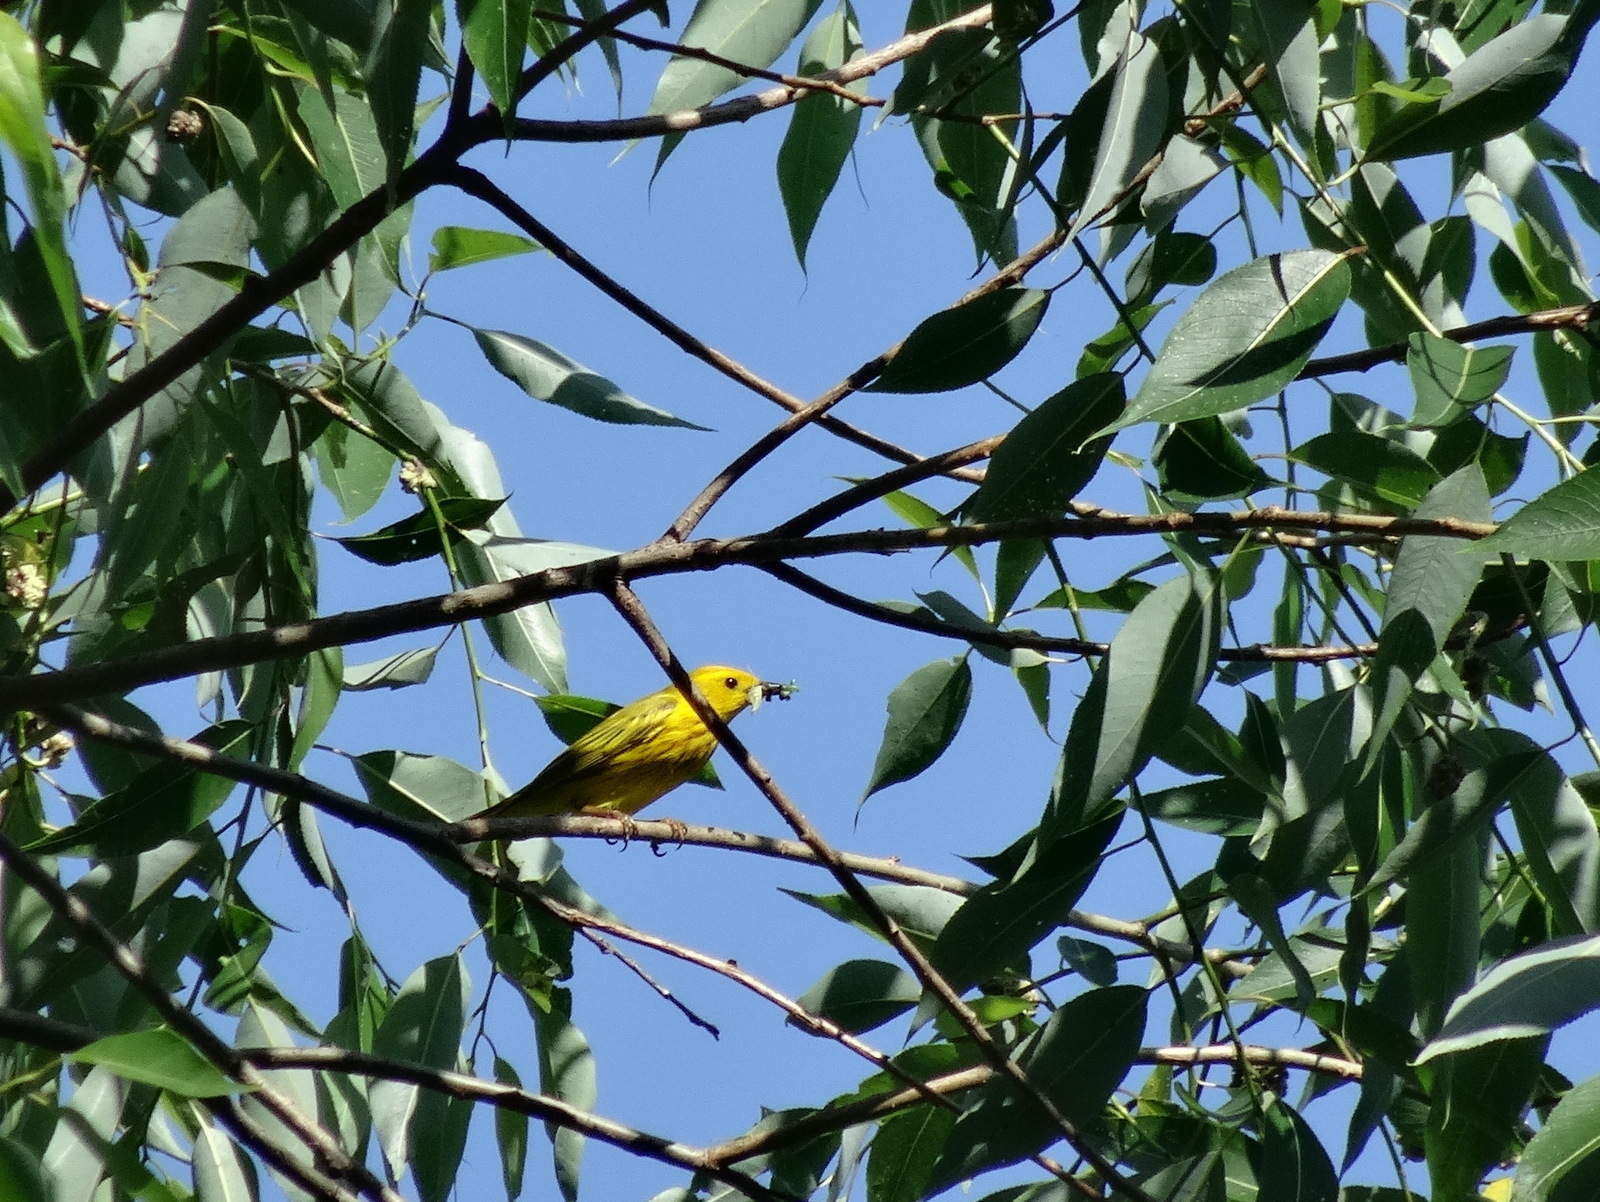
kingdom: Animalia
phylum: Chordata
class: Aves
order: Passeriformes
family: Parulidae
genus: Setophaga
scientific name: Setophaga petechia
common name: Yellow warbler
